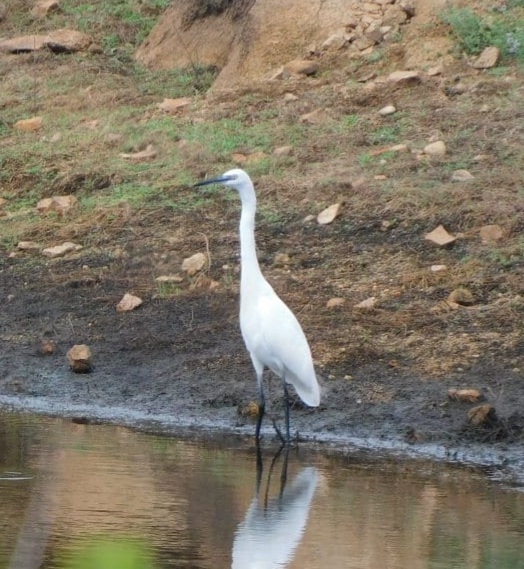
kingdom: Animalia
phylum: Chordata
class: Aves
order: Pelecaniformes
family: Ardeidae
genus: Egretta
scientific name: Egretta garzetta
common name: Little egret
